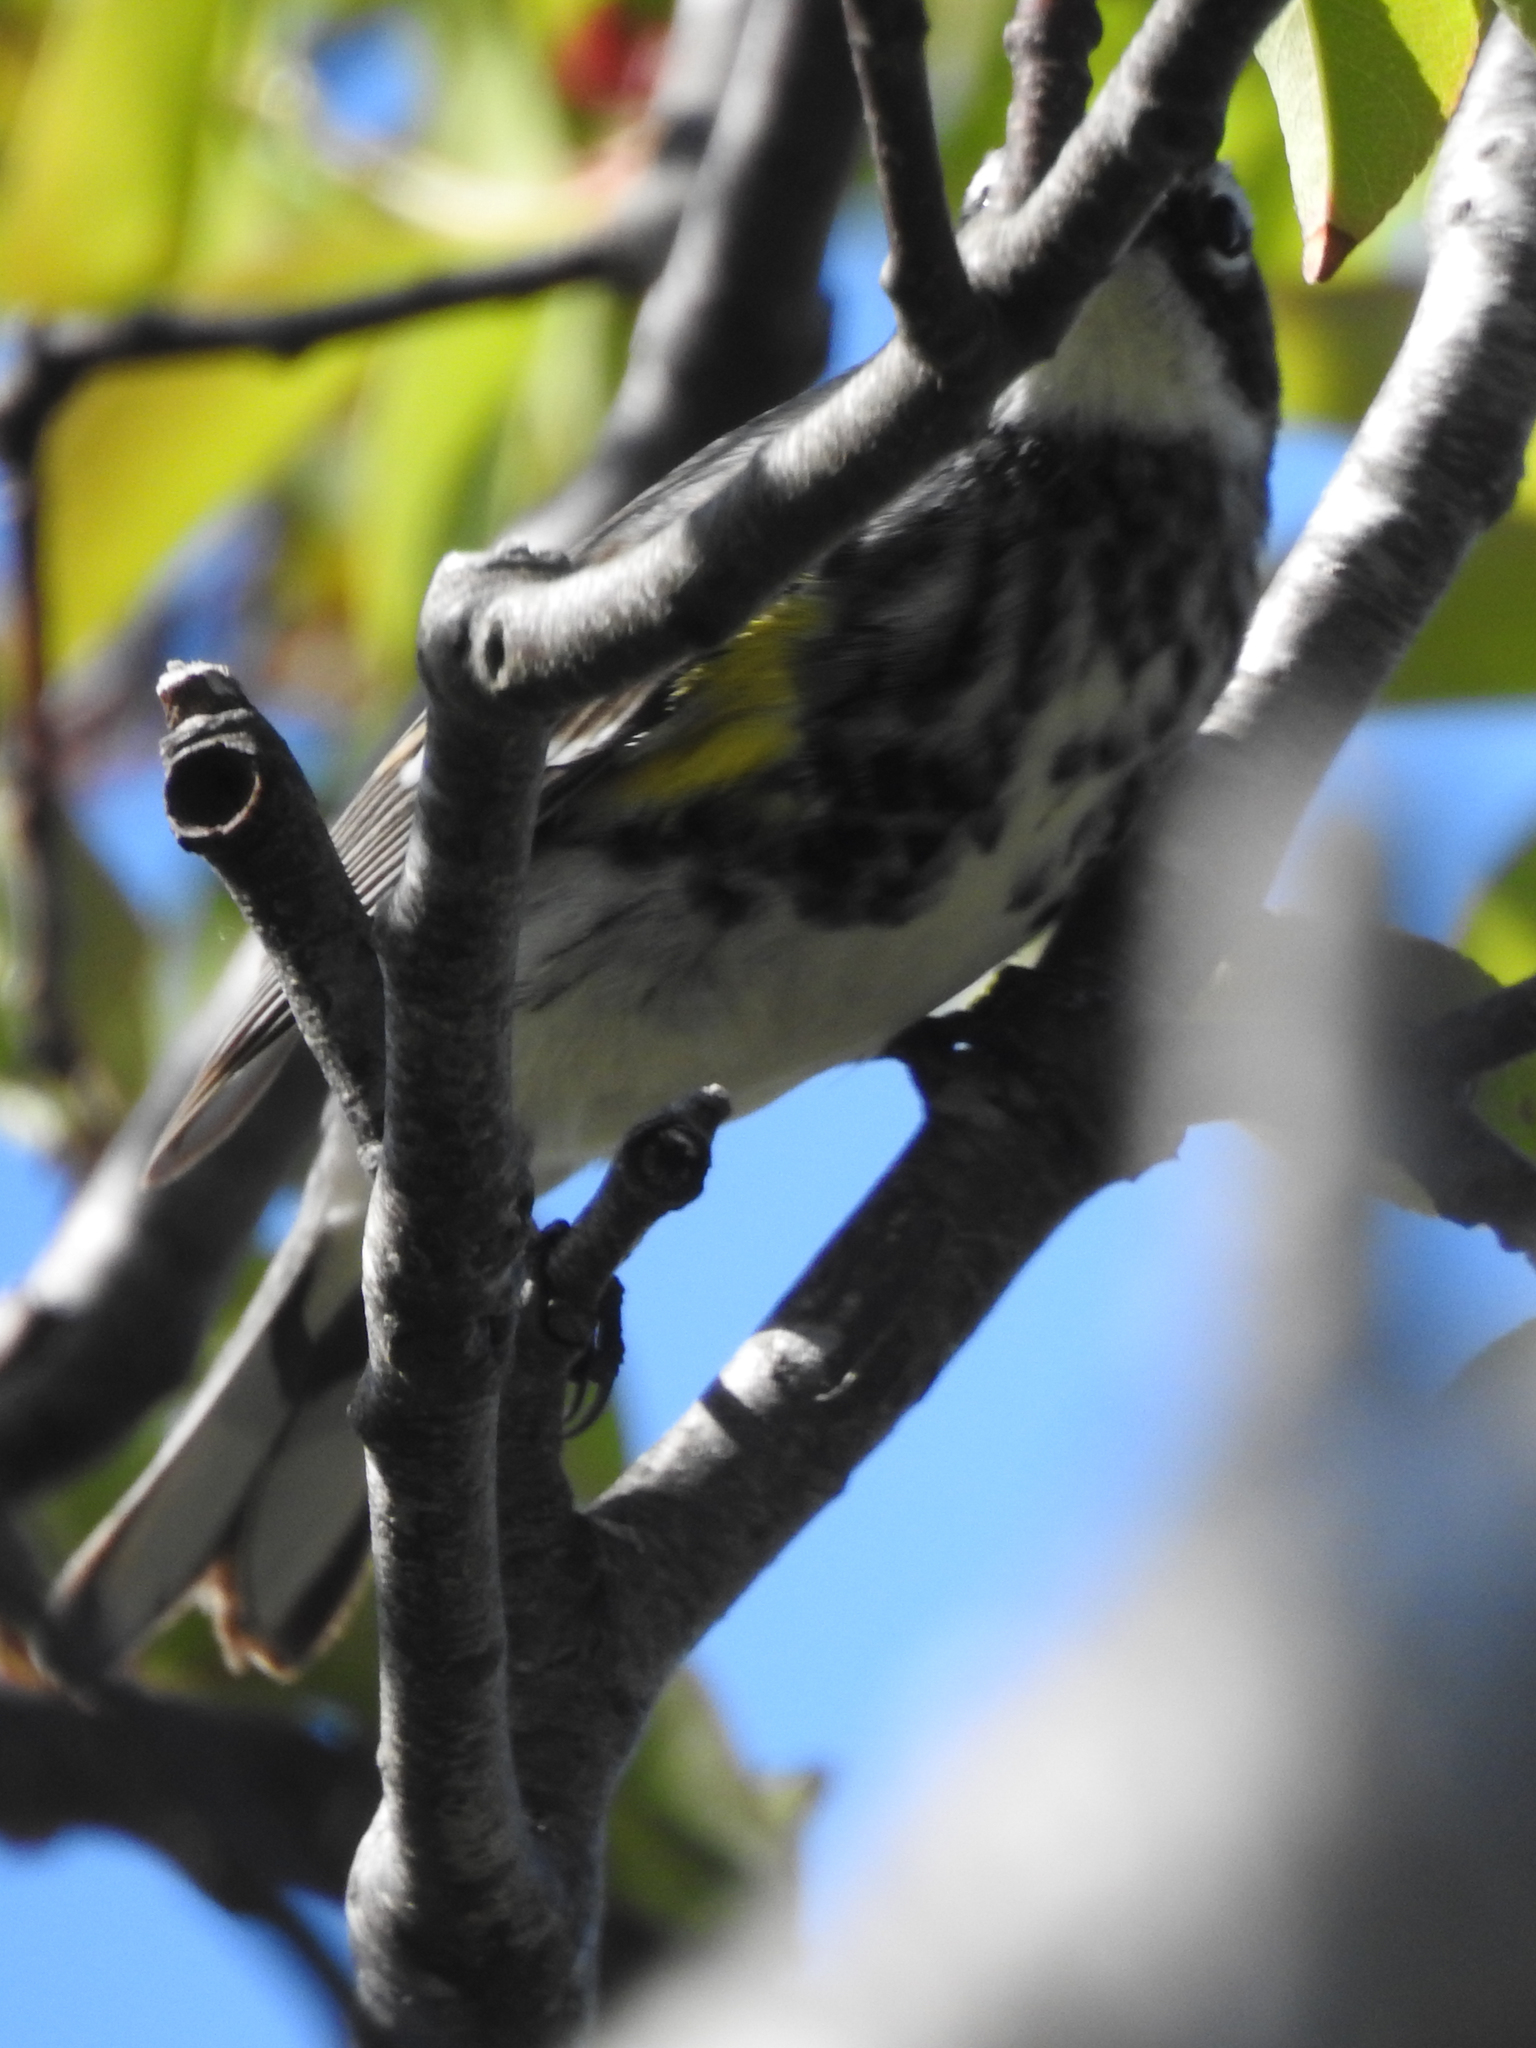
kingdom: Animalia
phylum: Chordata
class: Aves
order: Passeriformes
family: Parulidae
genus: Setophaga
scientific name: Setophaga coronata
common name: Myrtle warbler
